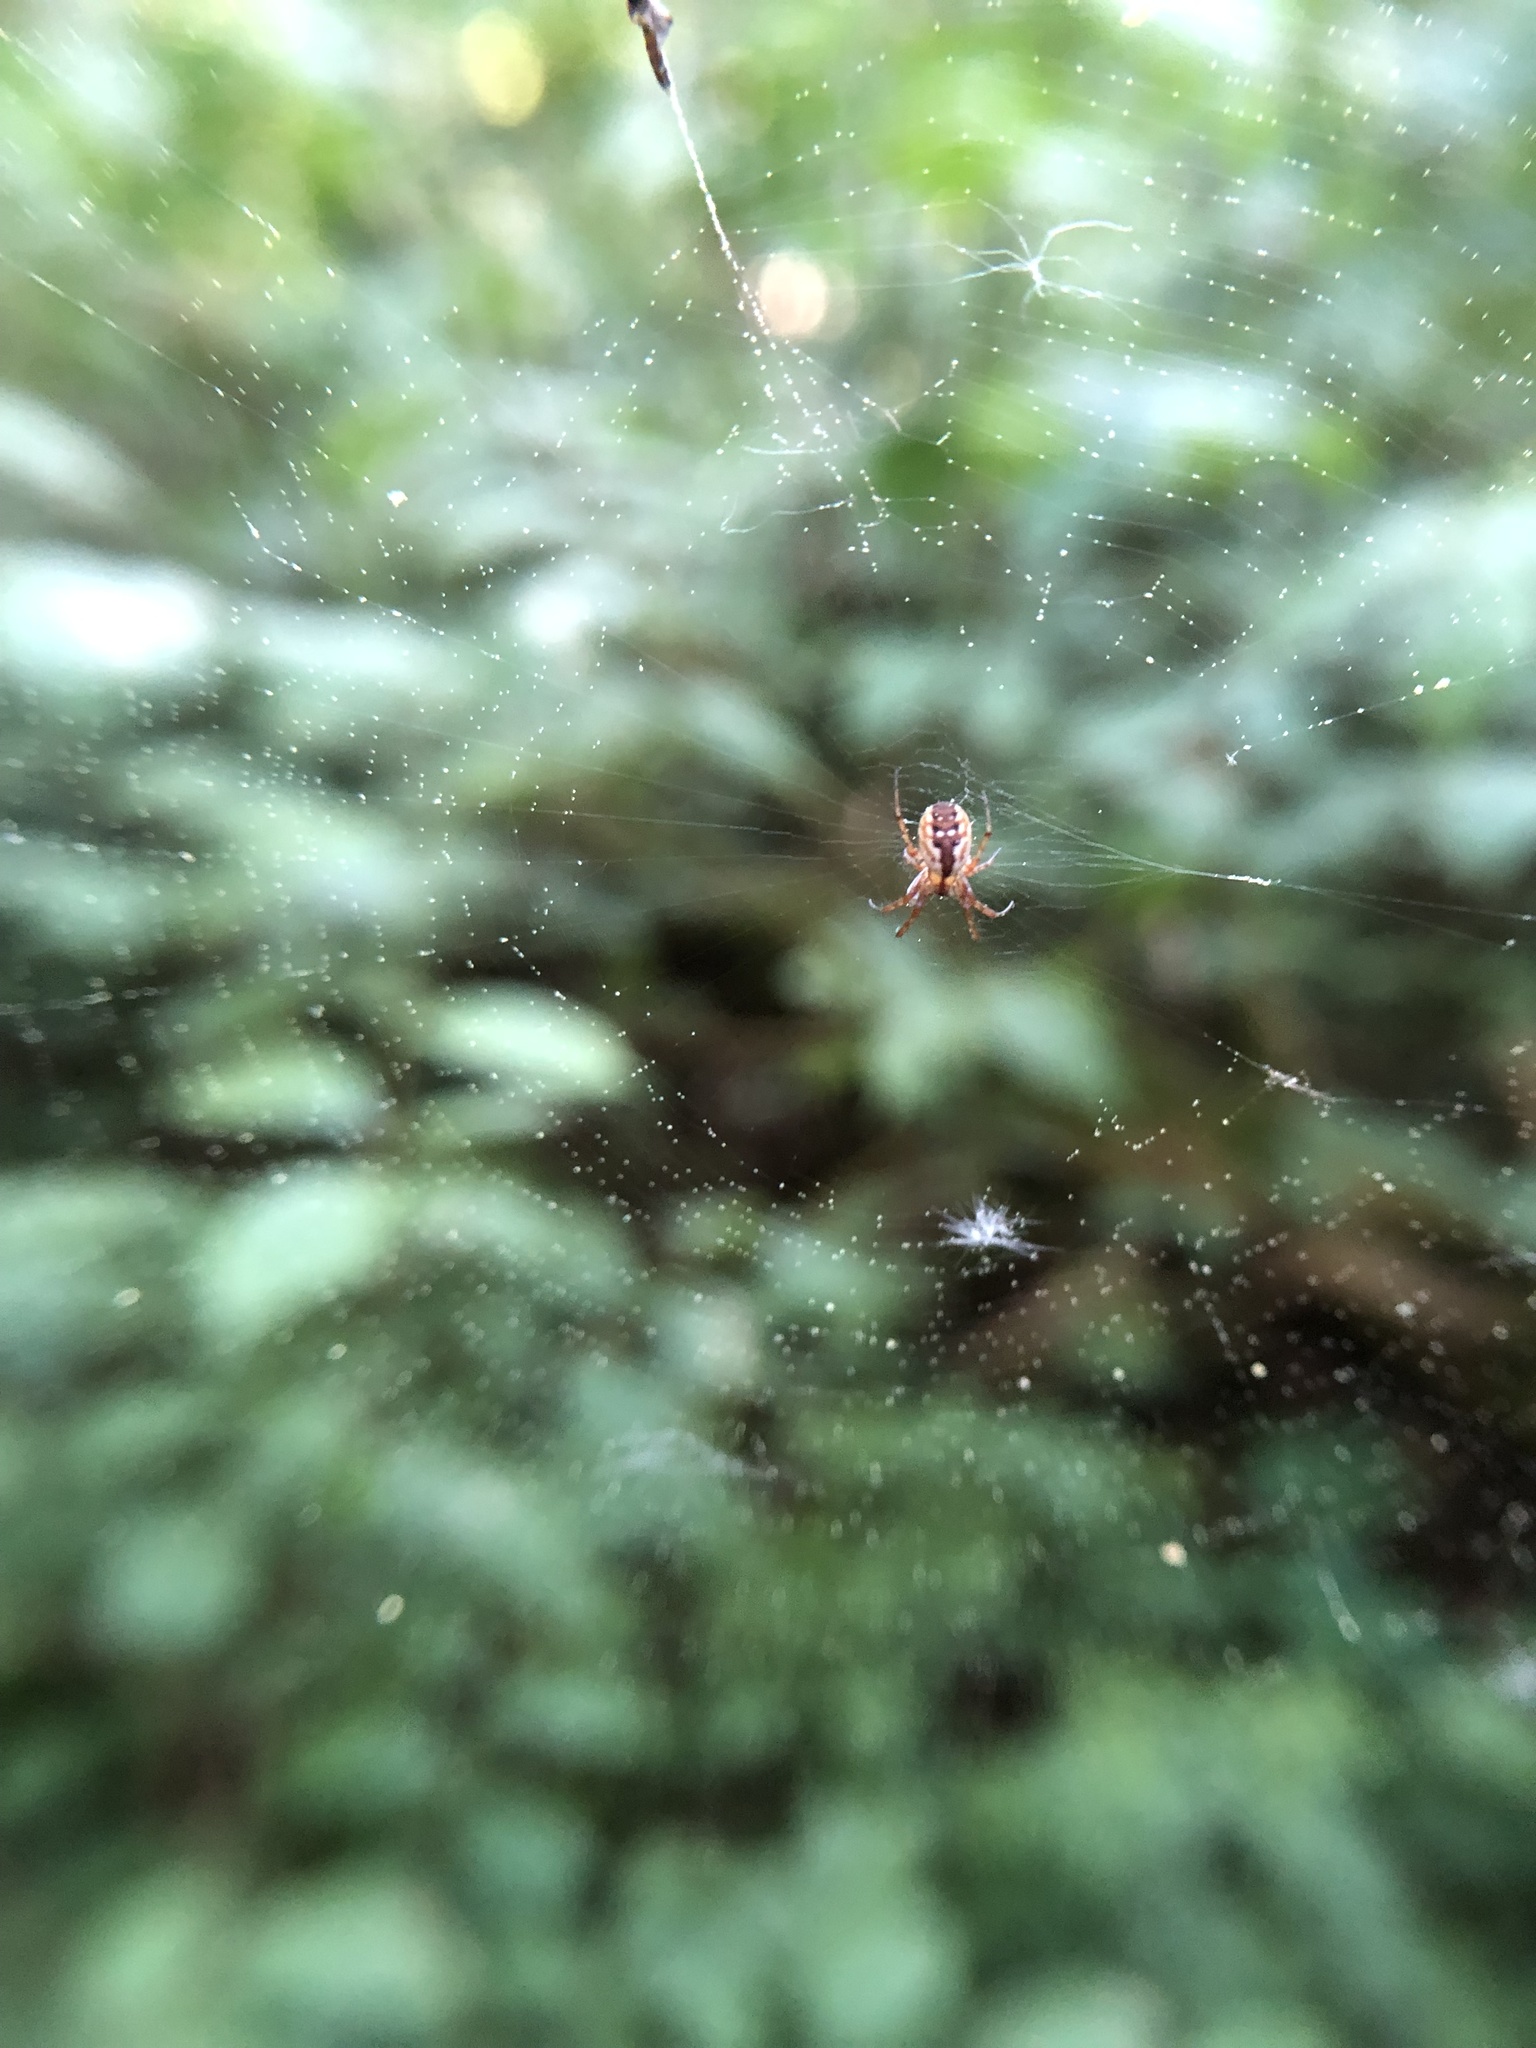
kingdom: Animalia
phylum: Arthropoda
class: Arachnida
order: Araneae
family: Araneidae
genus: Mangora
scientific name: Mangora placida
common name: Tuft-legged orbweaver
